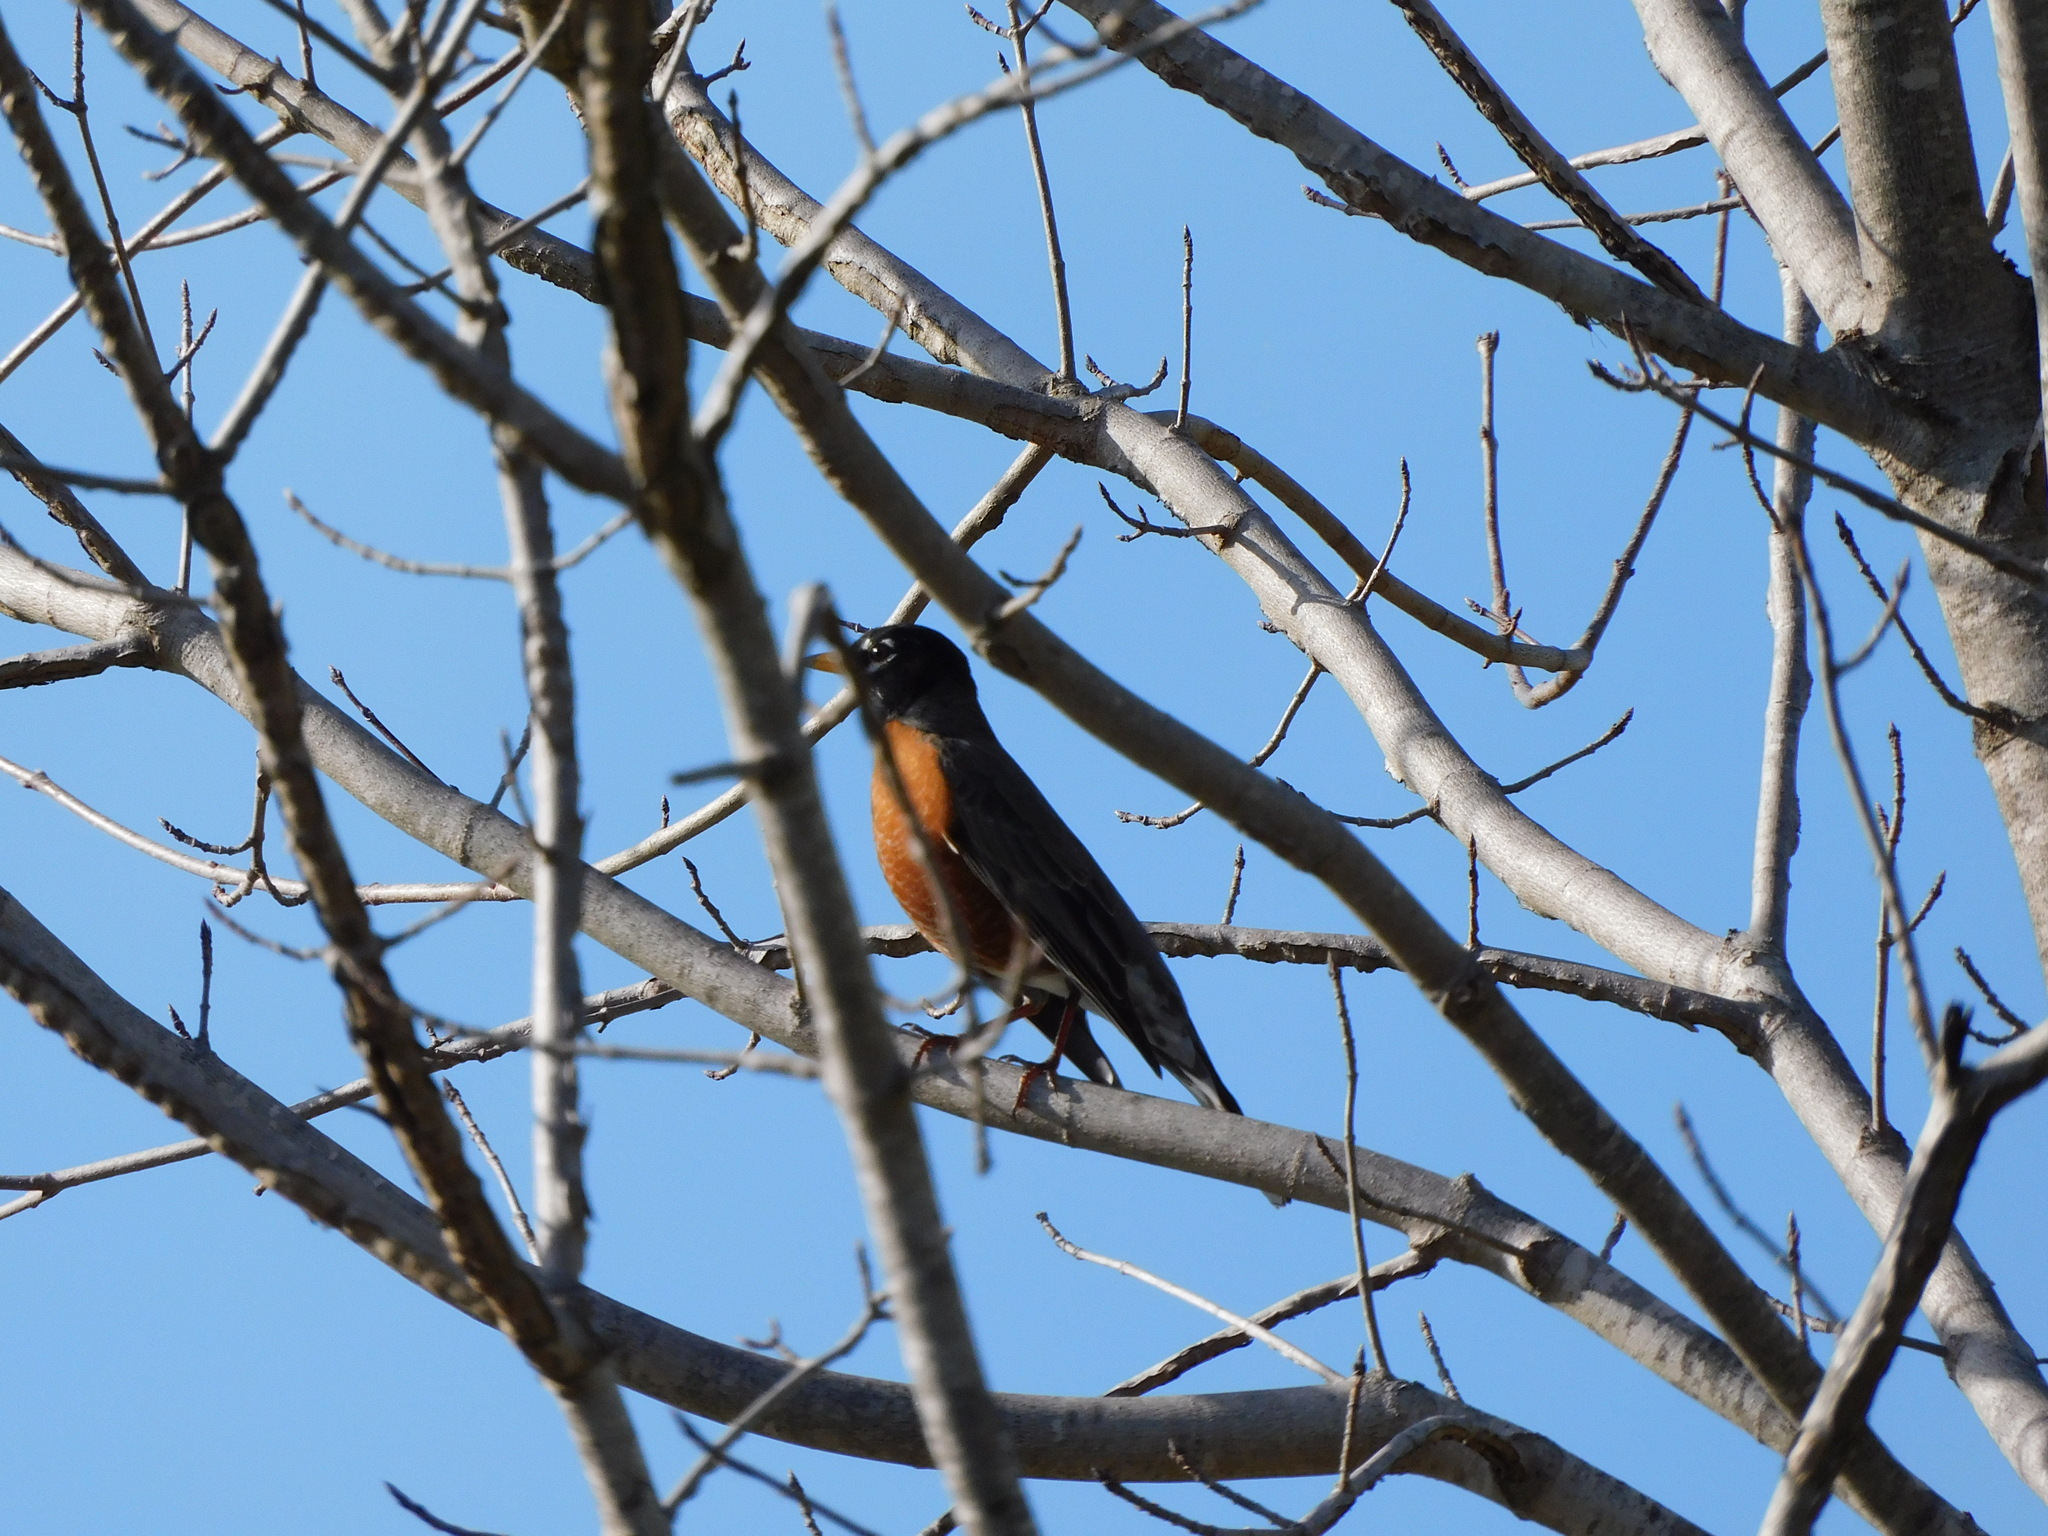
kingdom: Animalia
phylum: Chordata
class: Aves
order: Passeriformes
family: Turdidae
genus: Turdus
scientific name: Turdus migratorius
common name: American robin
